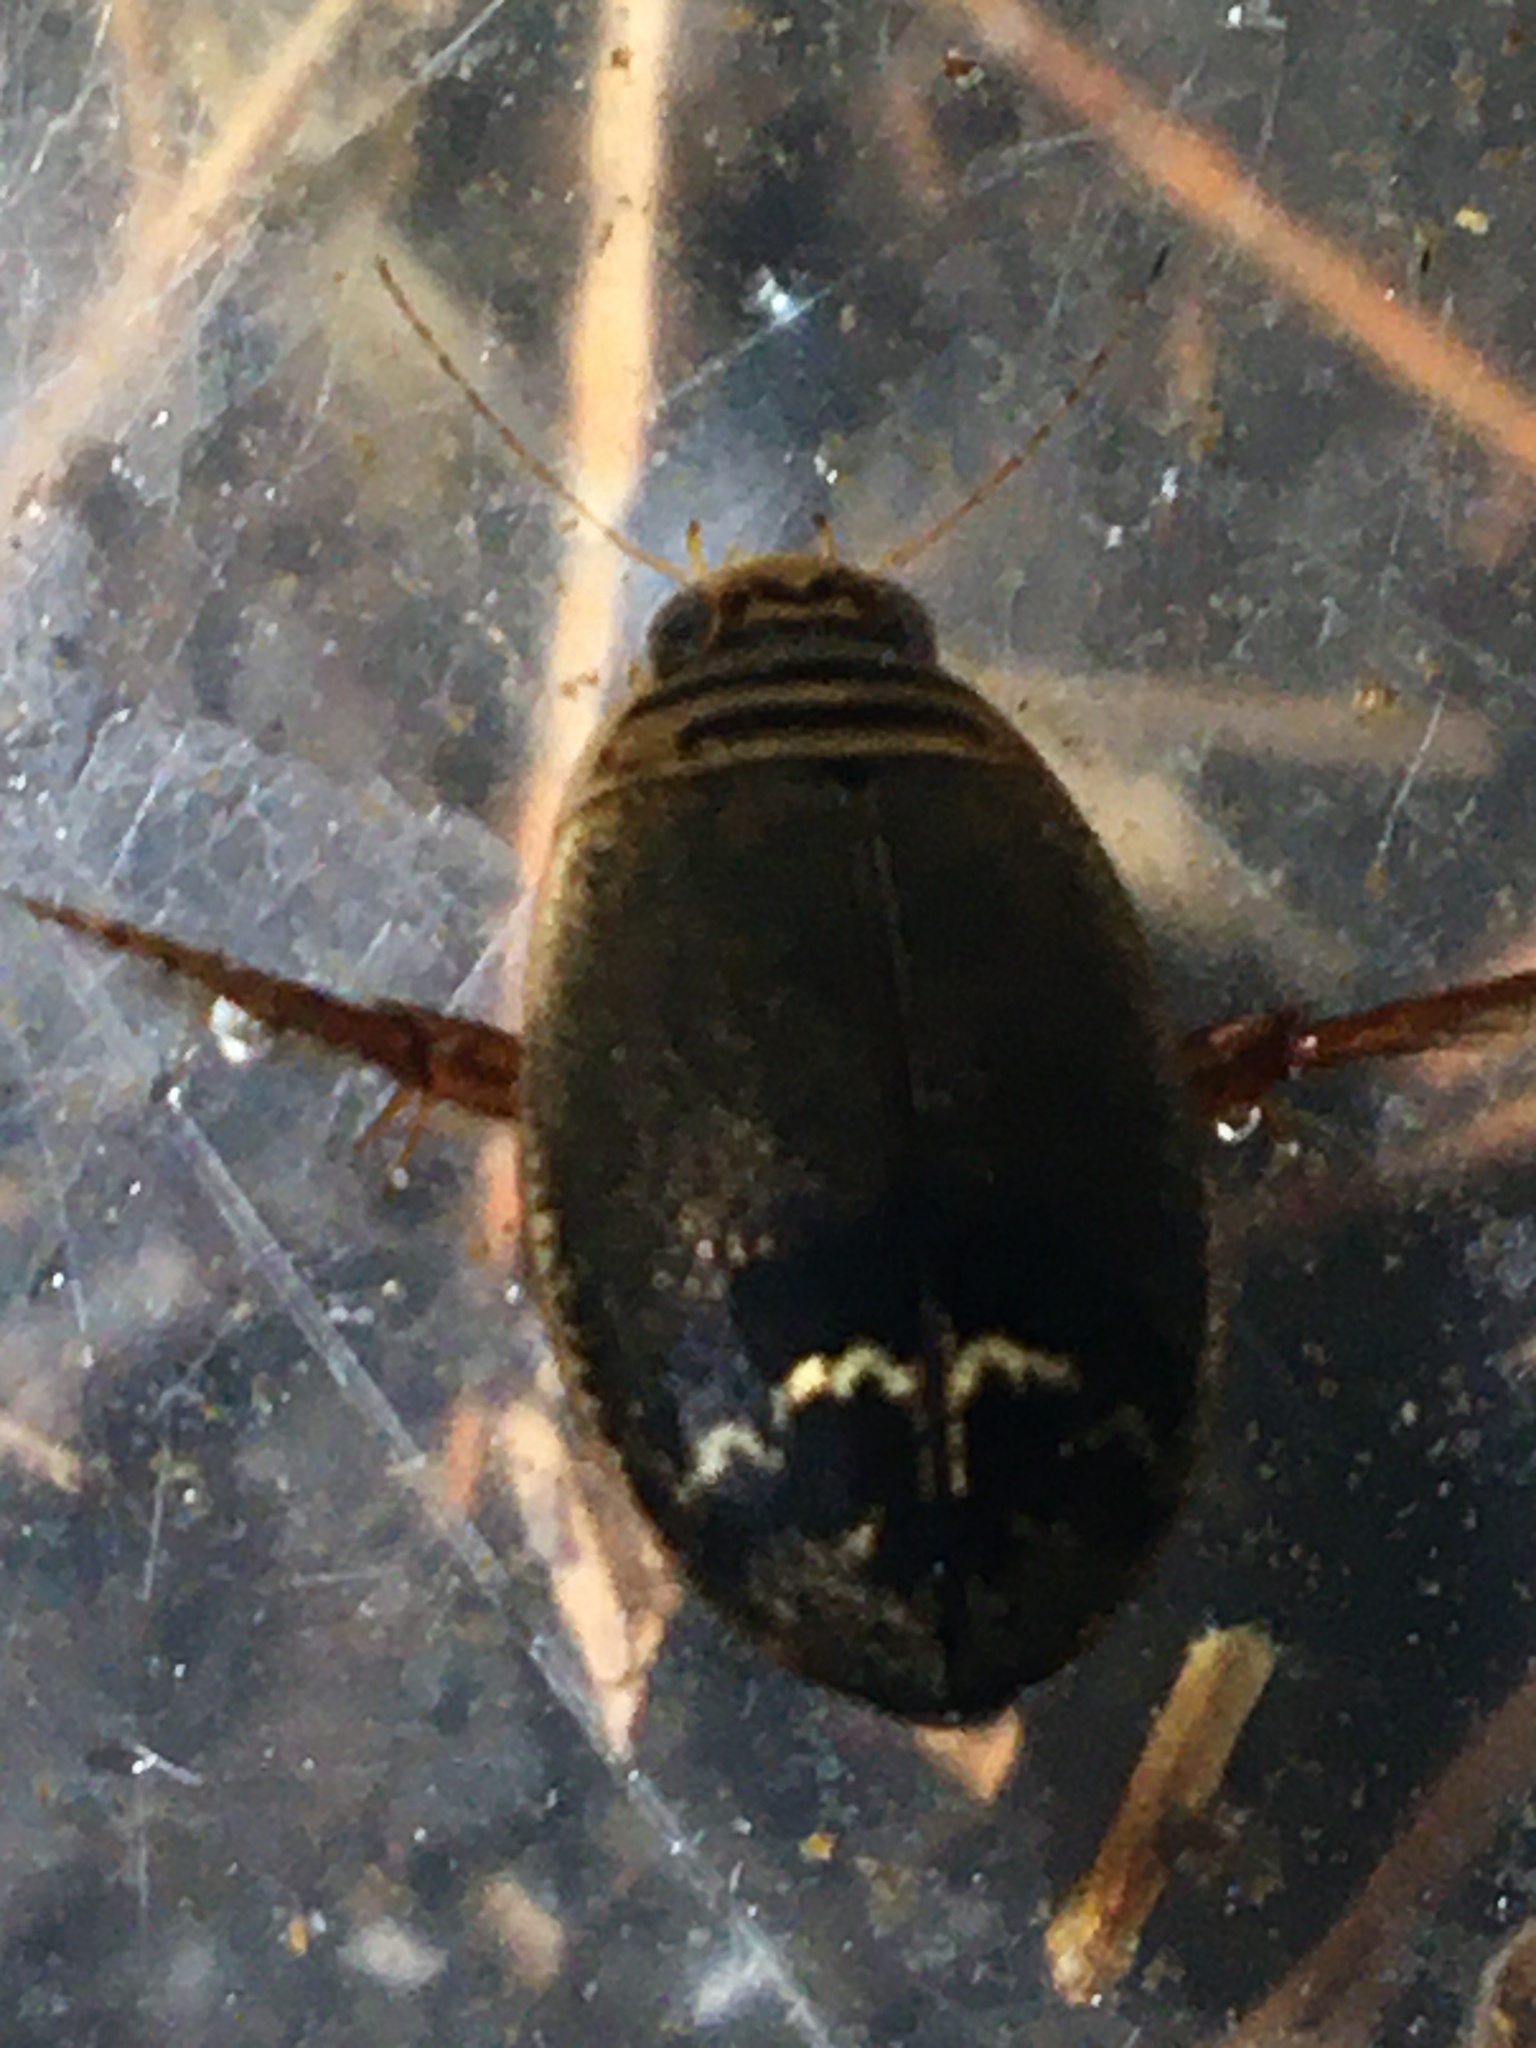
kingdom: Animalia
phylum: Arthropoda
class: Insecta
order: Coleoptera
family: Dytiscidae
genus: Acilius
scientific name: Acilius
